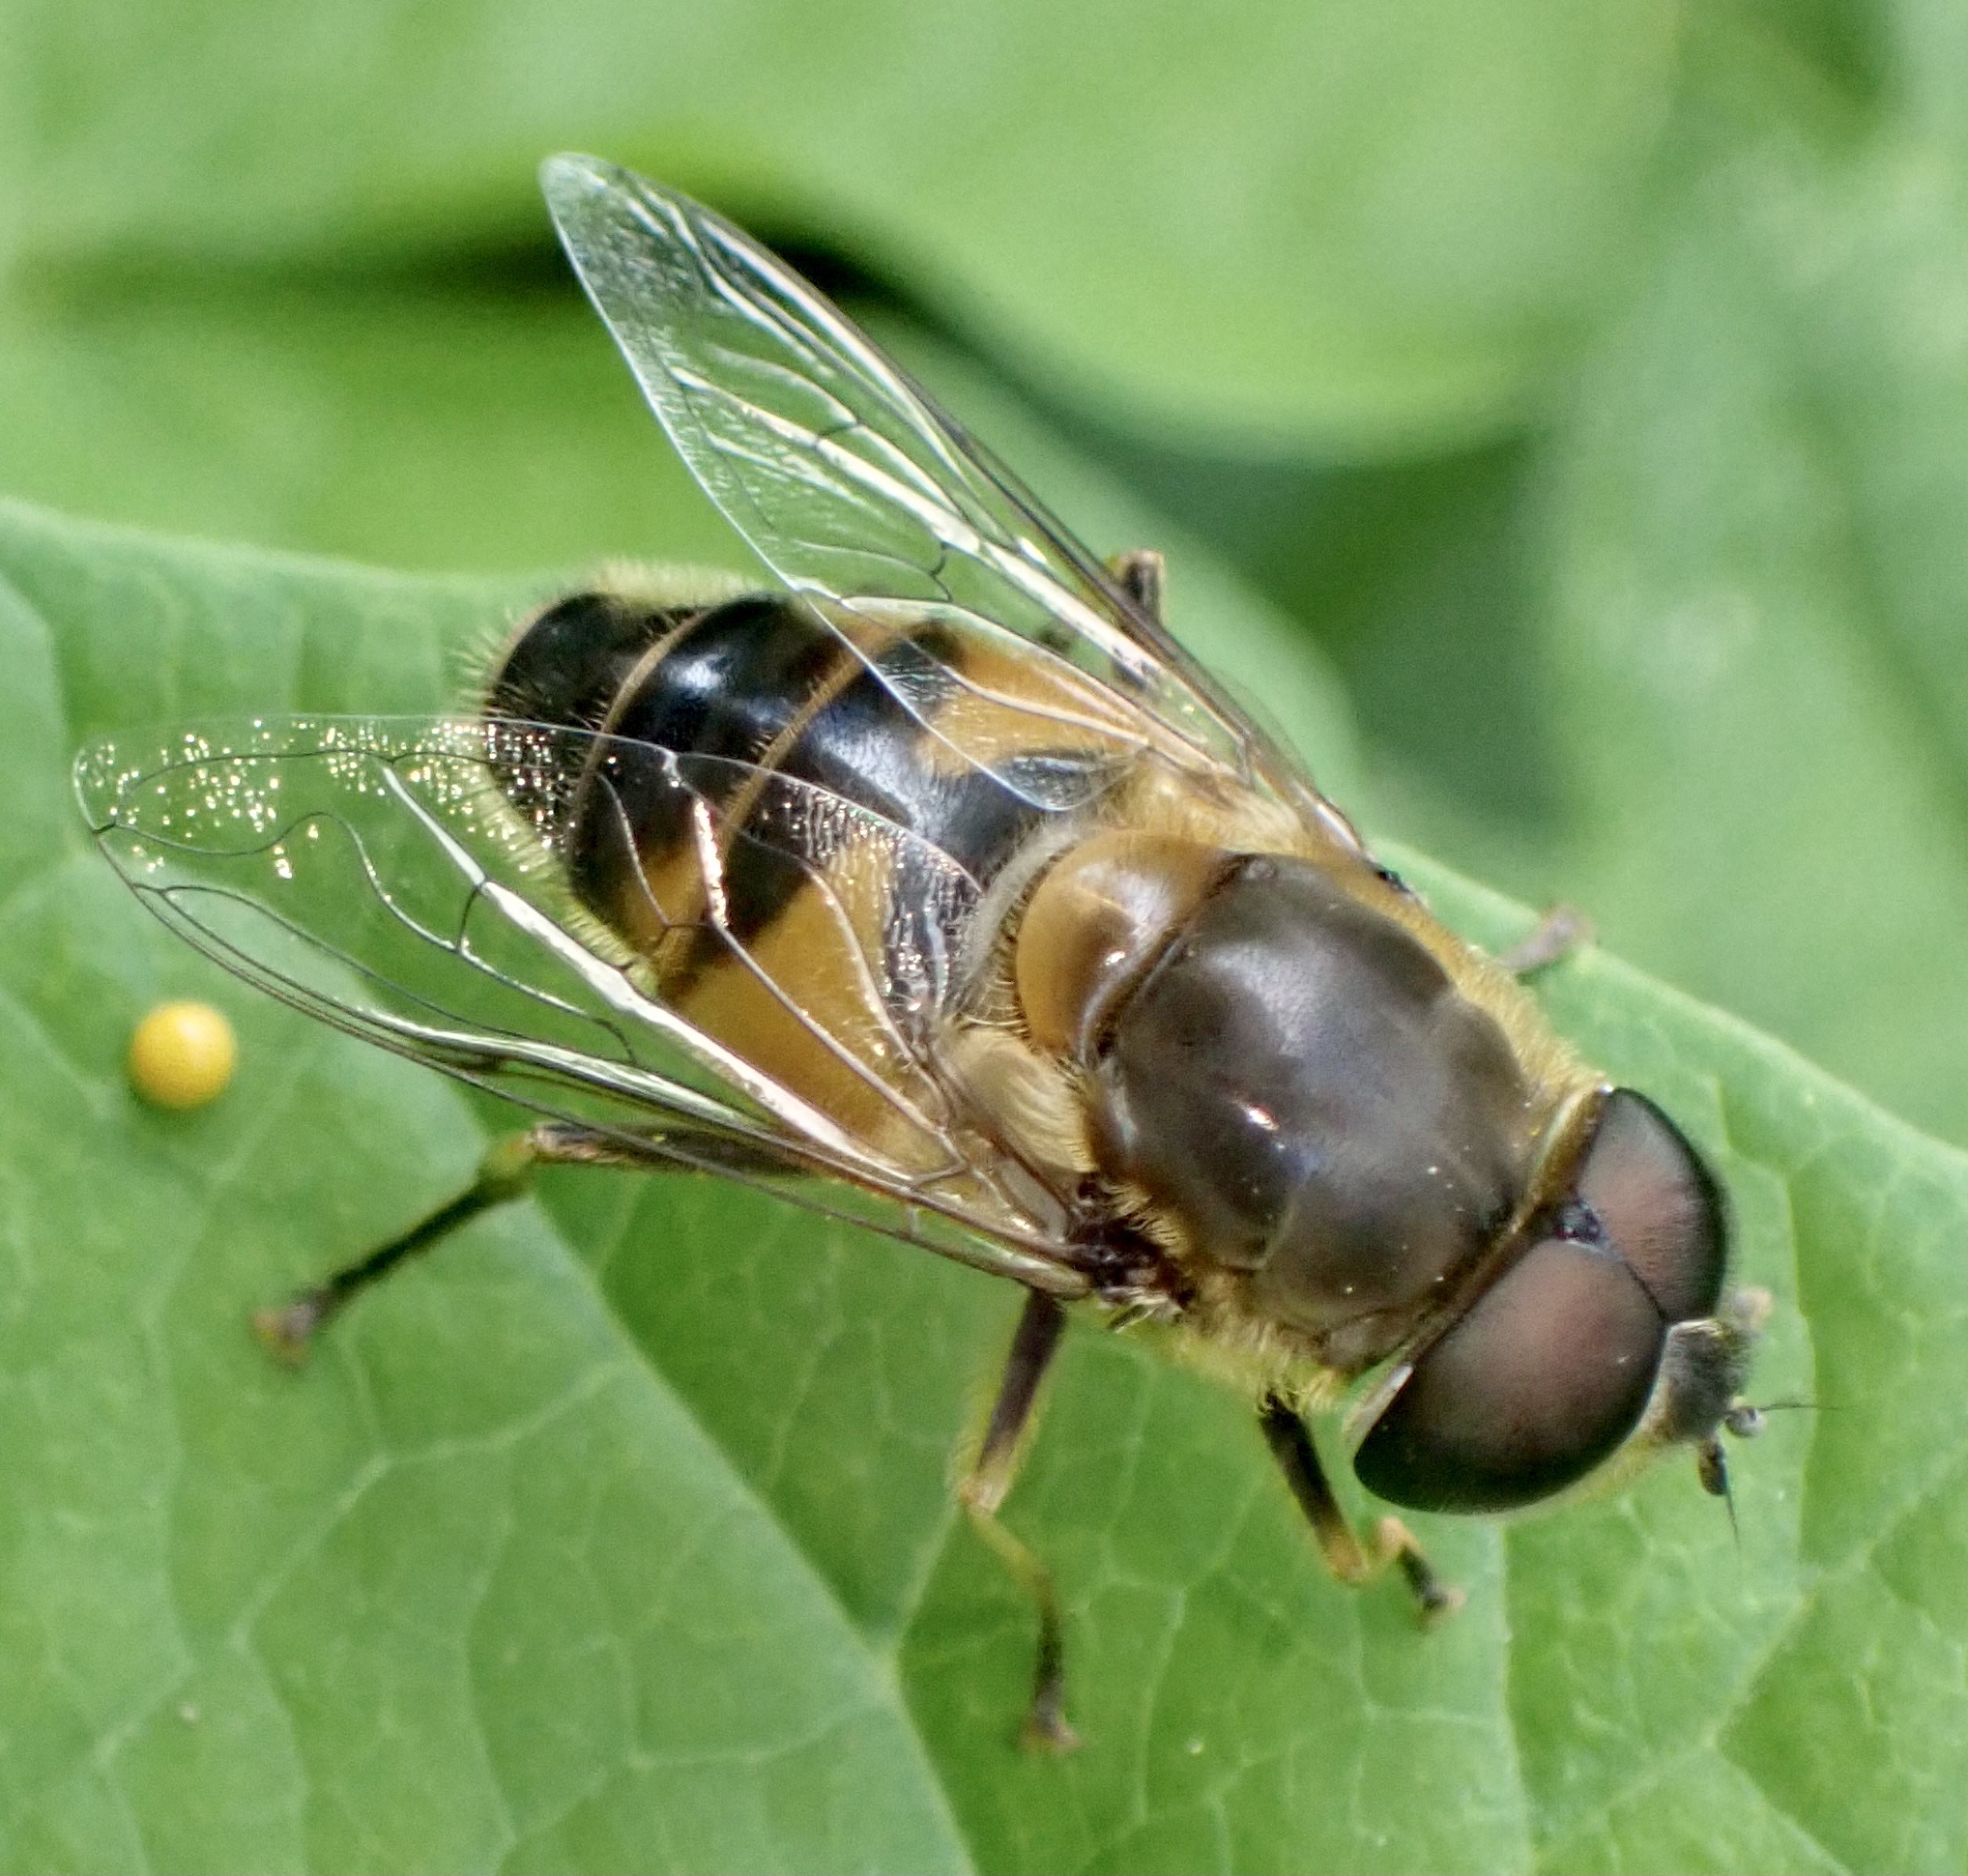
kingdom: Animalia
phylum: Arthropoda
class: Insecta
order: Diptera
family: Syrphidae
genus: Eristalis
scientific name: Eristalis pertinax
